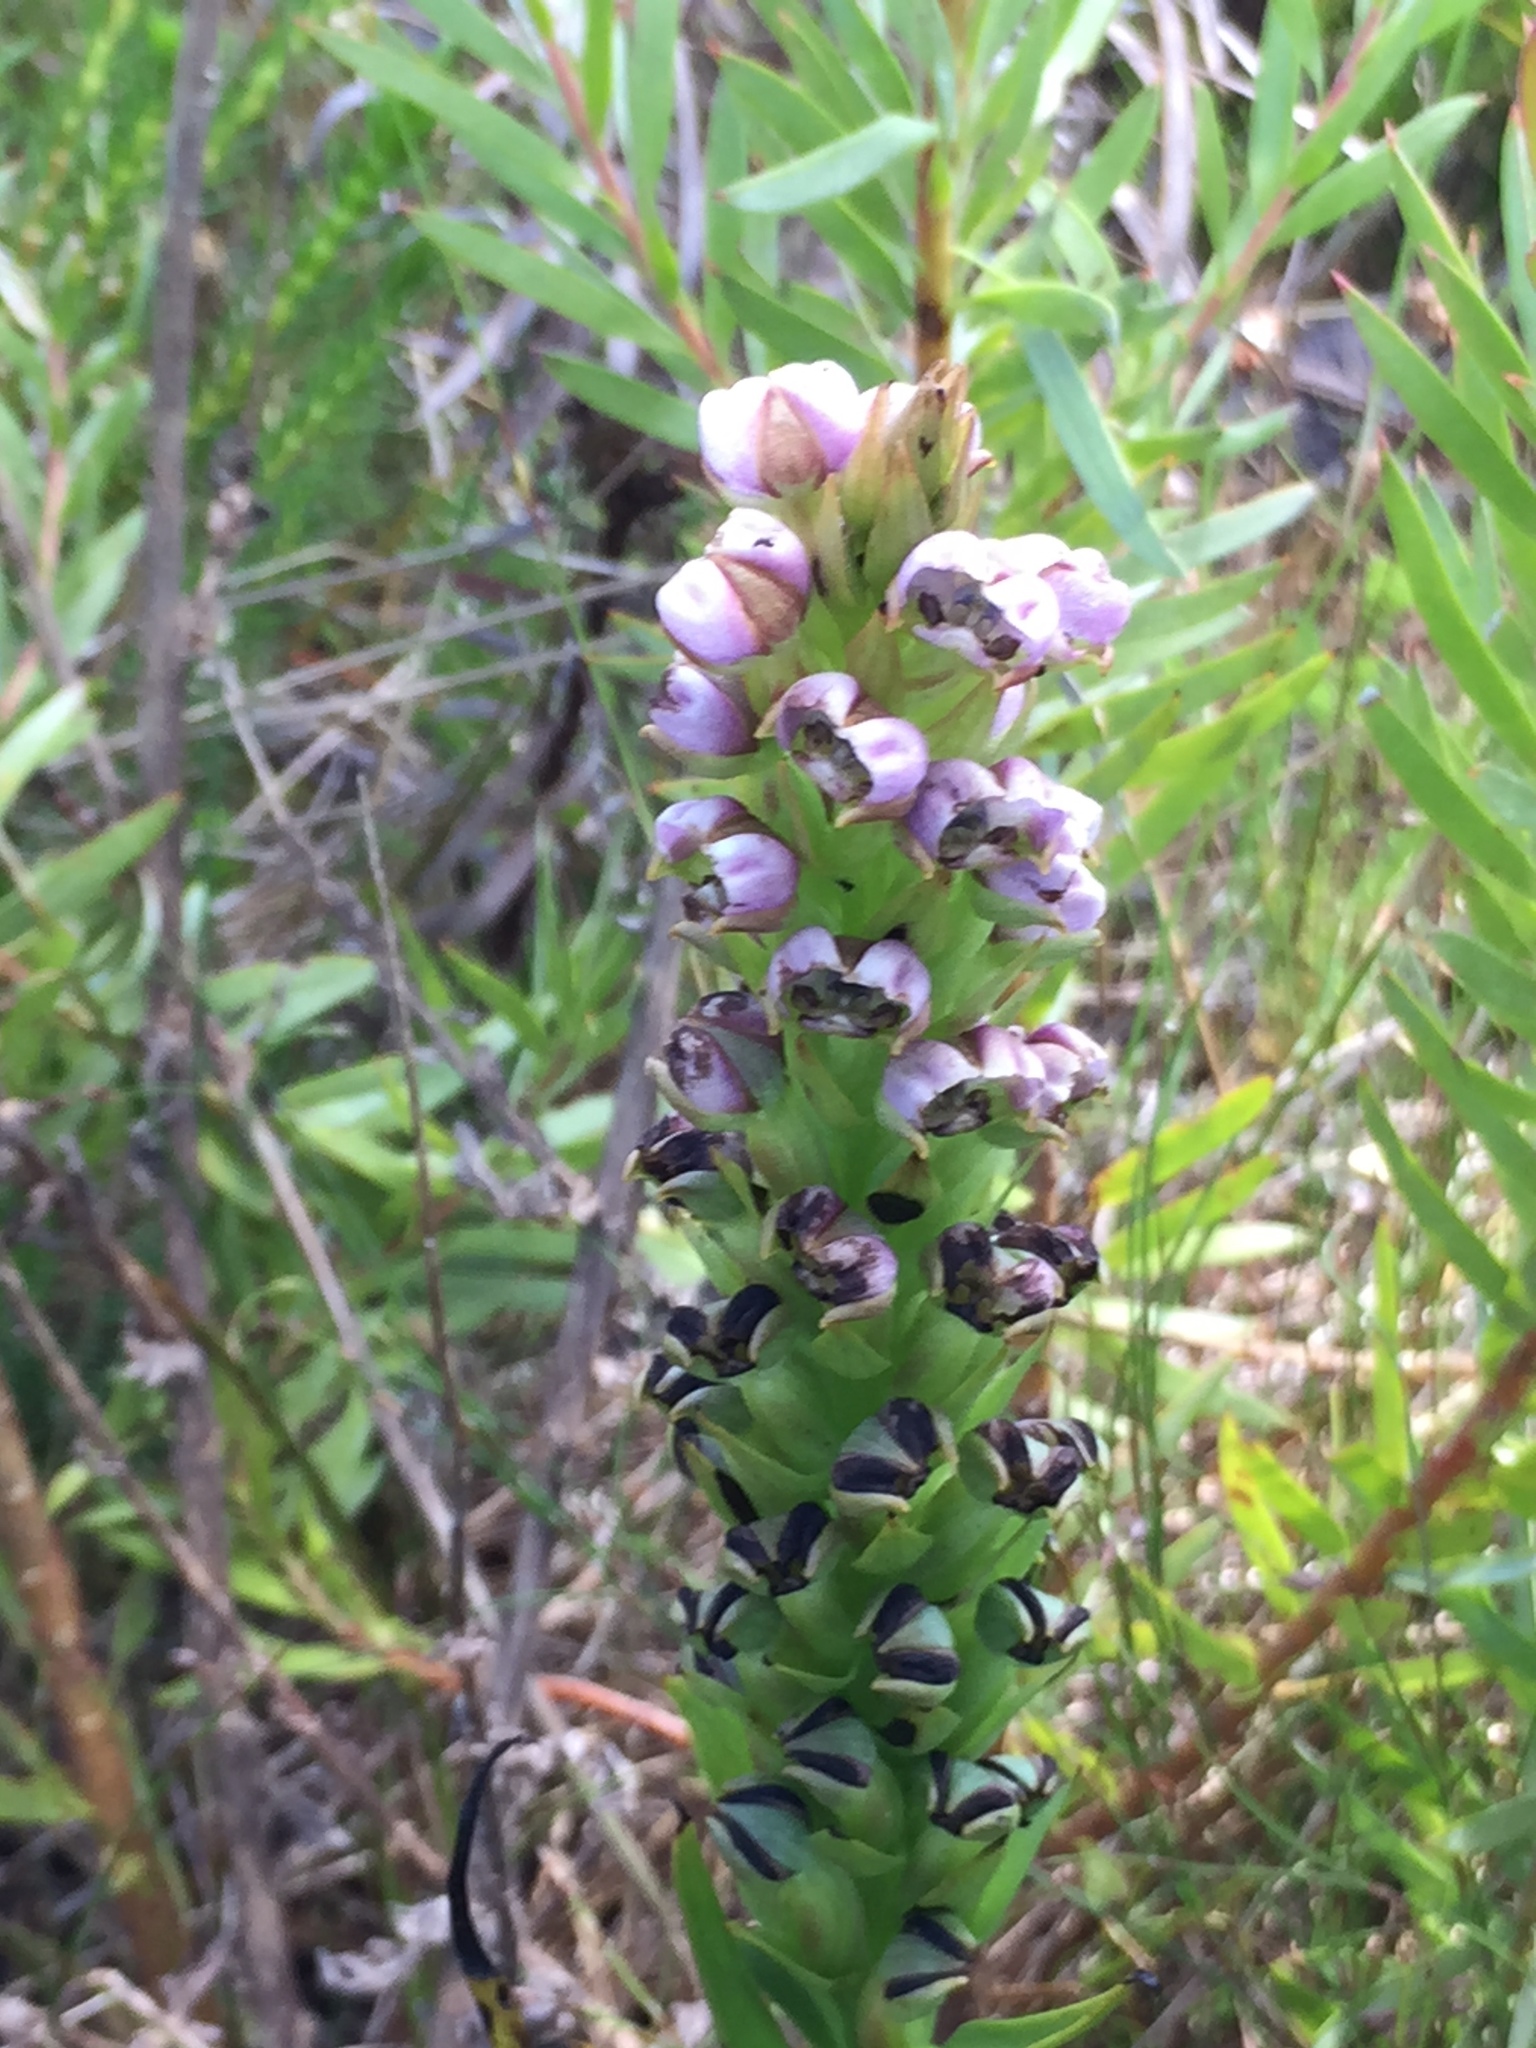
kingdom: Plantae
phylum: Tracheophyta
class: Liliopsida
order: Asparagales
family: Orchidaceae
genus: Evotella
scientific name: Evotella carnosa
